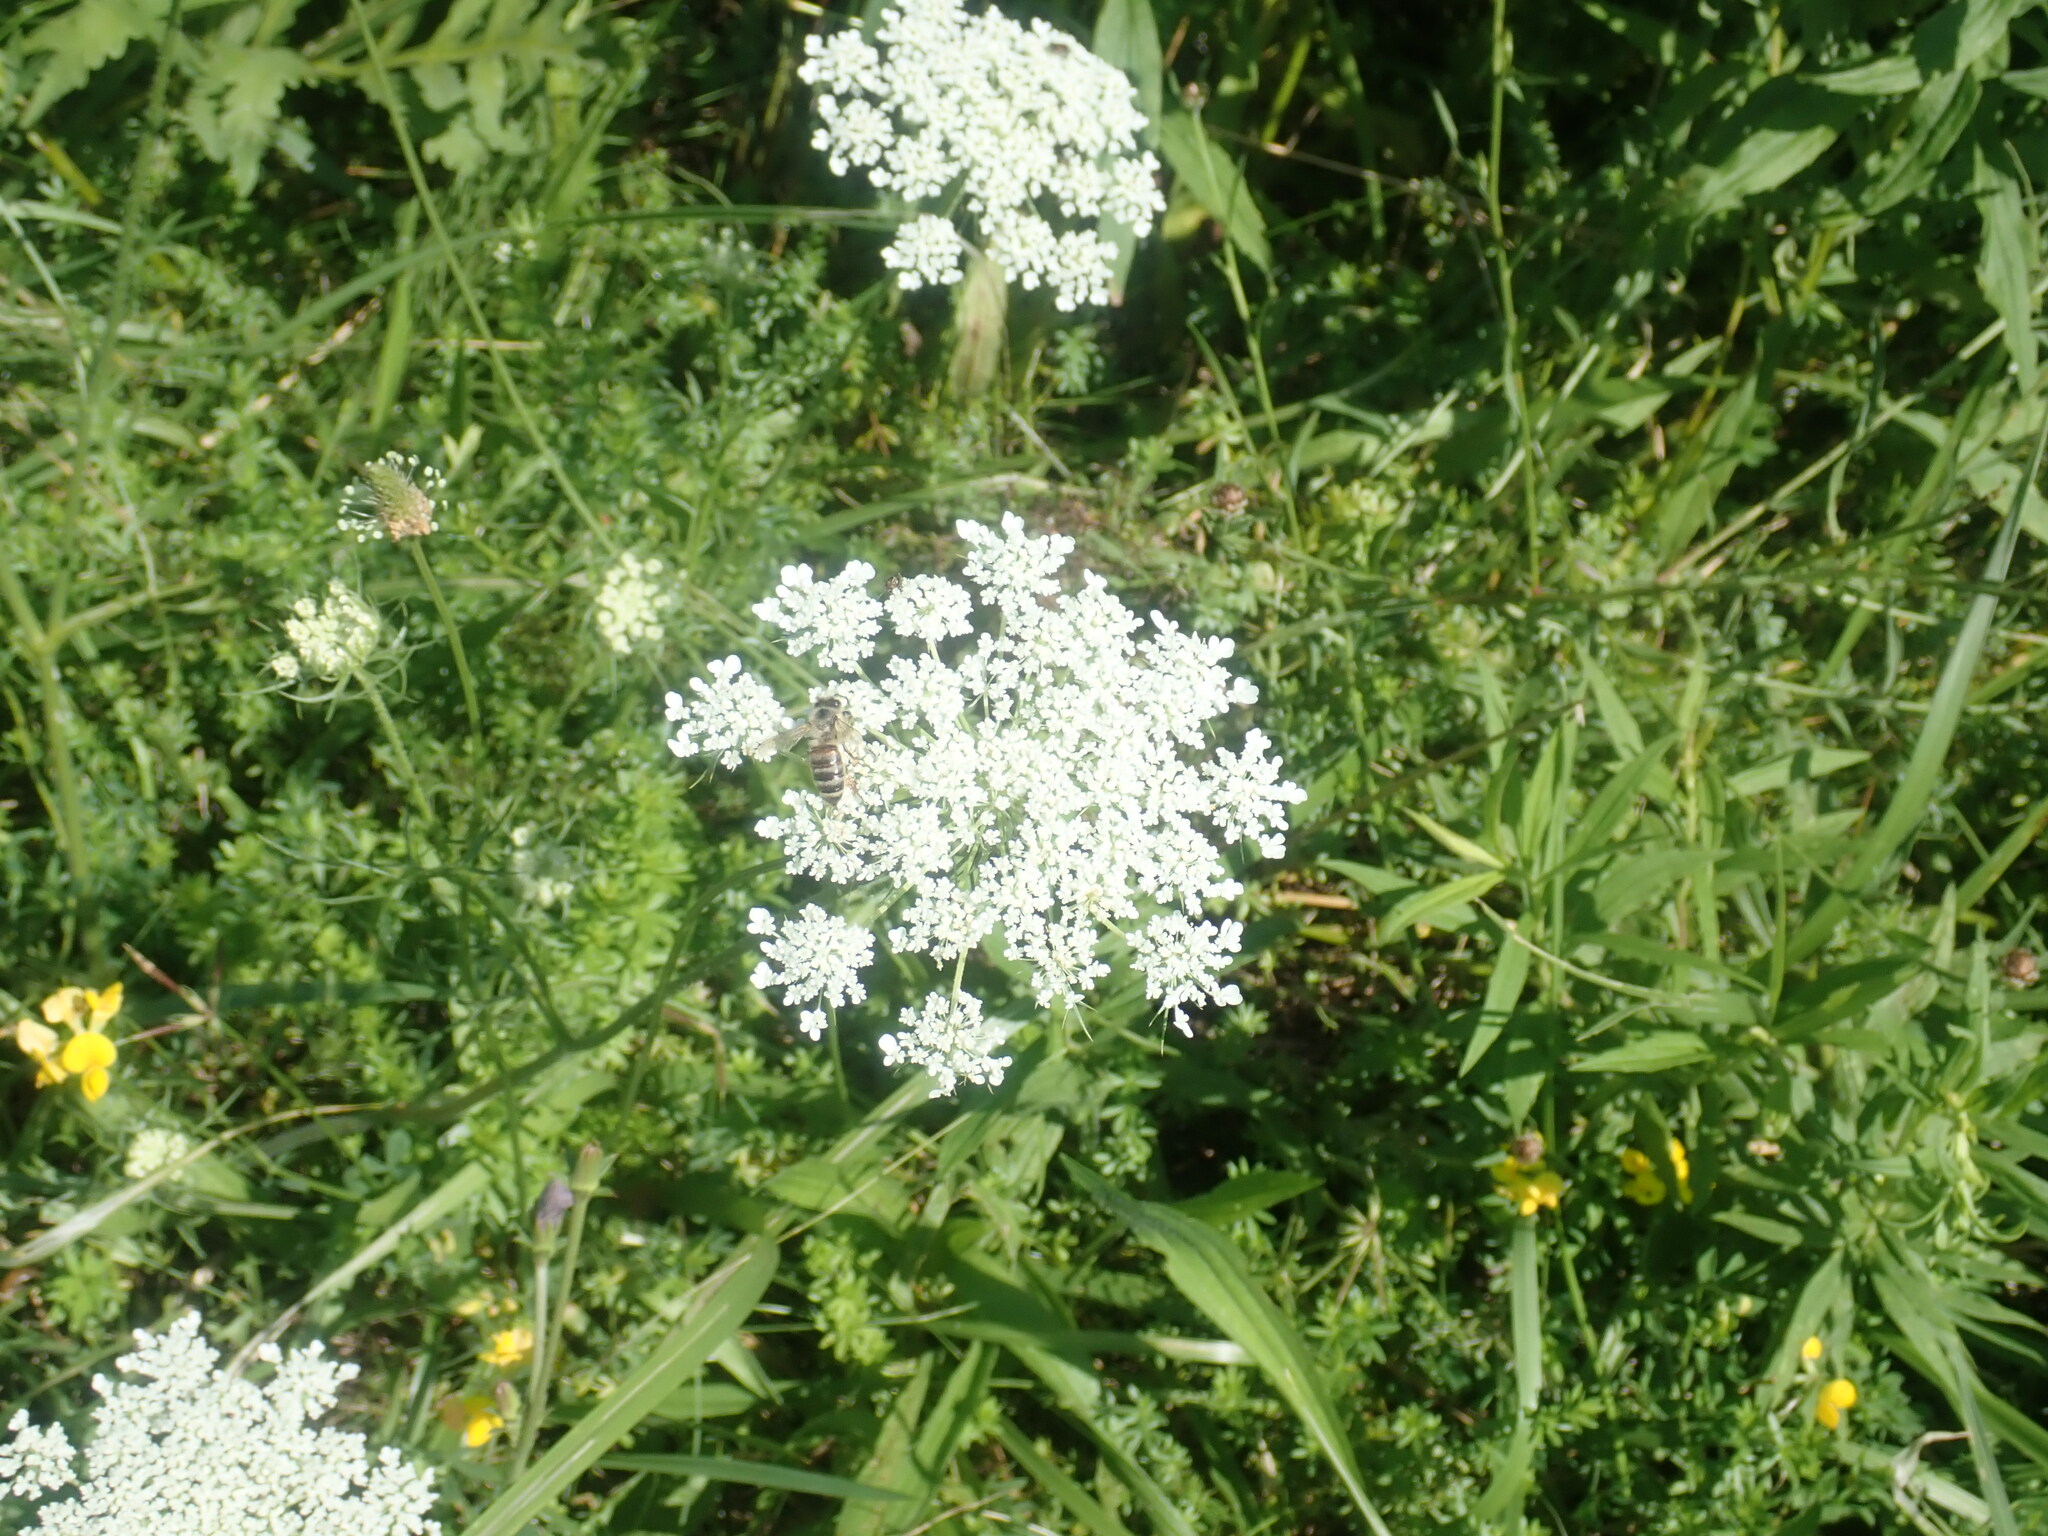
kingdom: Plantae
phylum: Tracheophyta
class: Magnoliopsida
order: Apiales
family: Apiaceae
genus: Daucus
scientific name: Daucus carota
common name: Wild carrot
